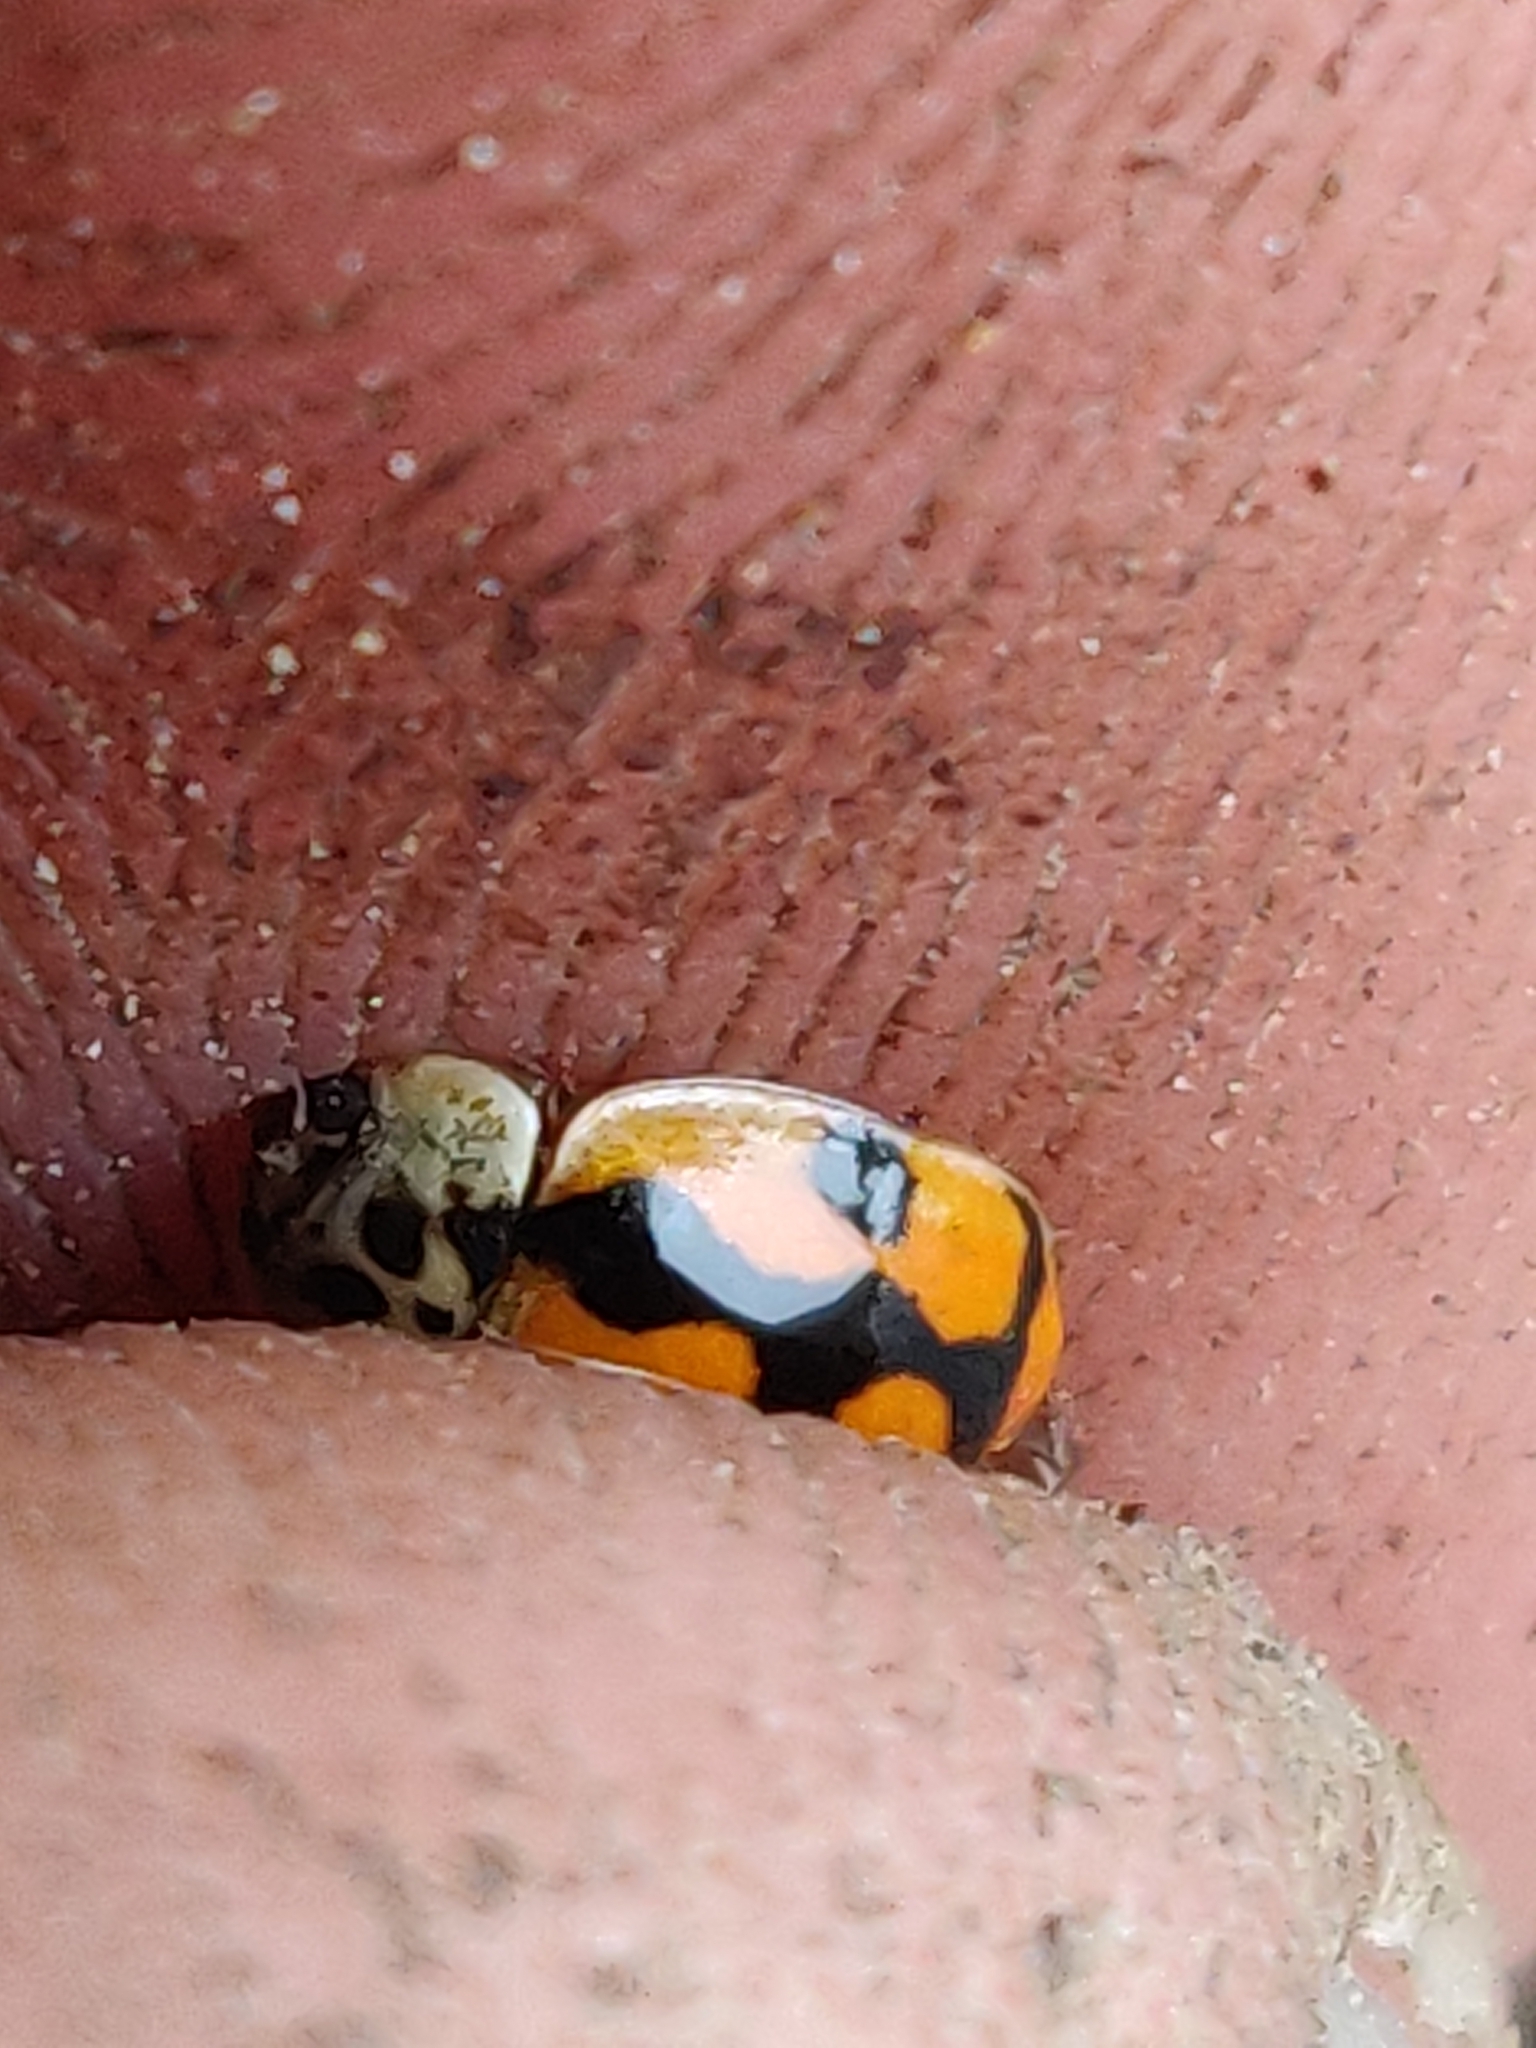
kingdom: Animalia
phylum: Arthropoda
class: Insecta
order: Coleoptera
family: Coccinellidae
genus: Adalia
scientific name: Adalia decempunctata
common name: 10-spot ladybird
